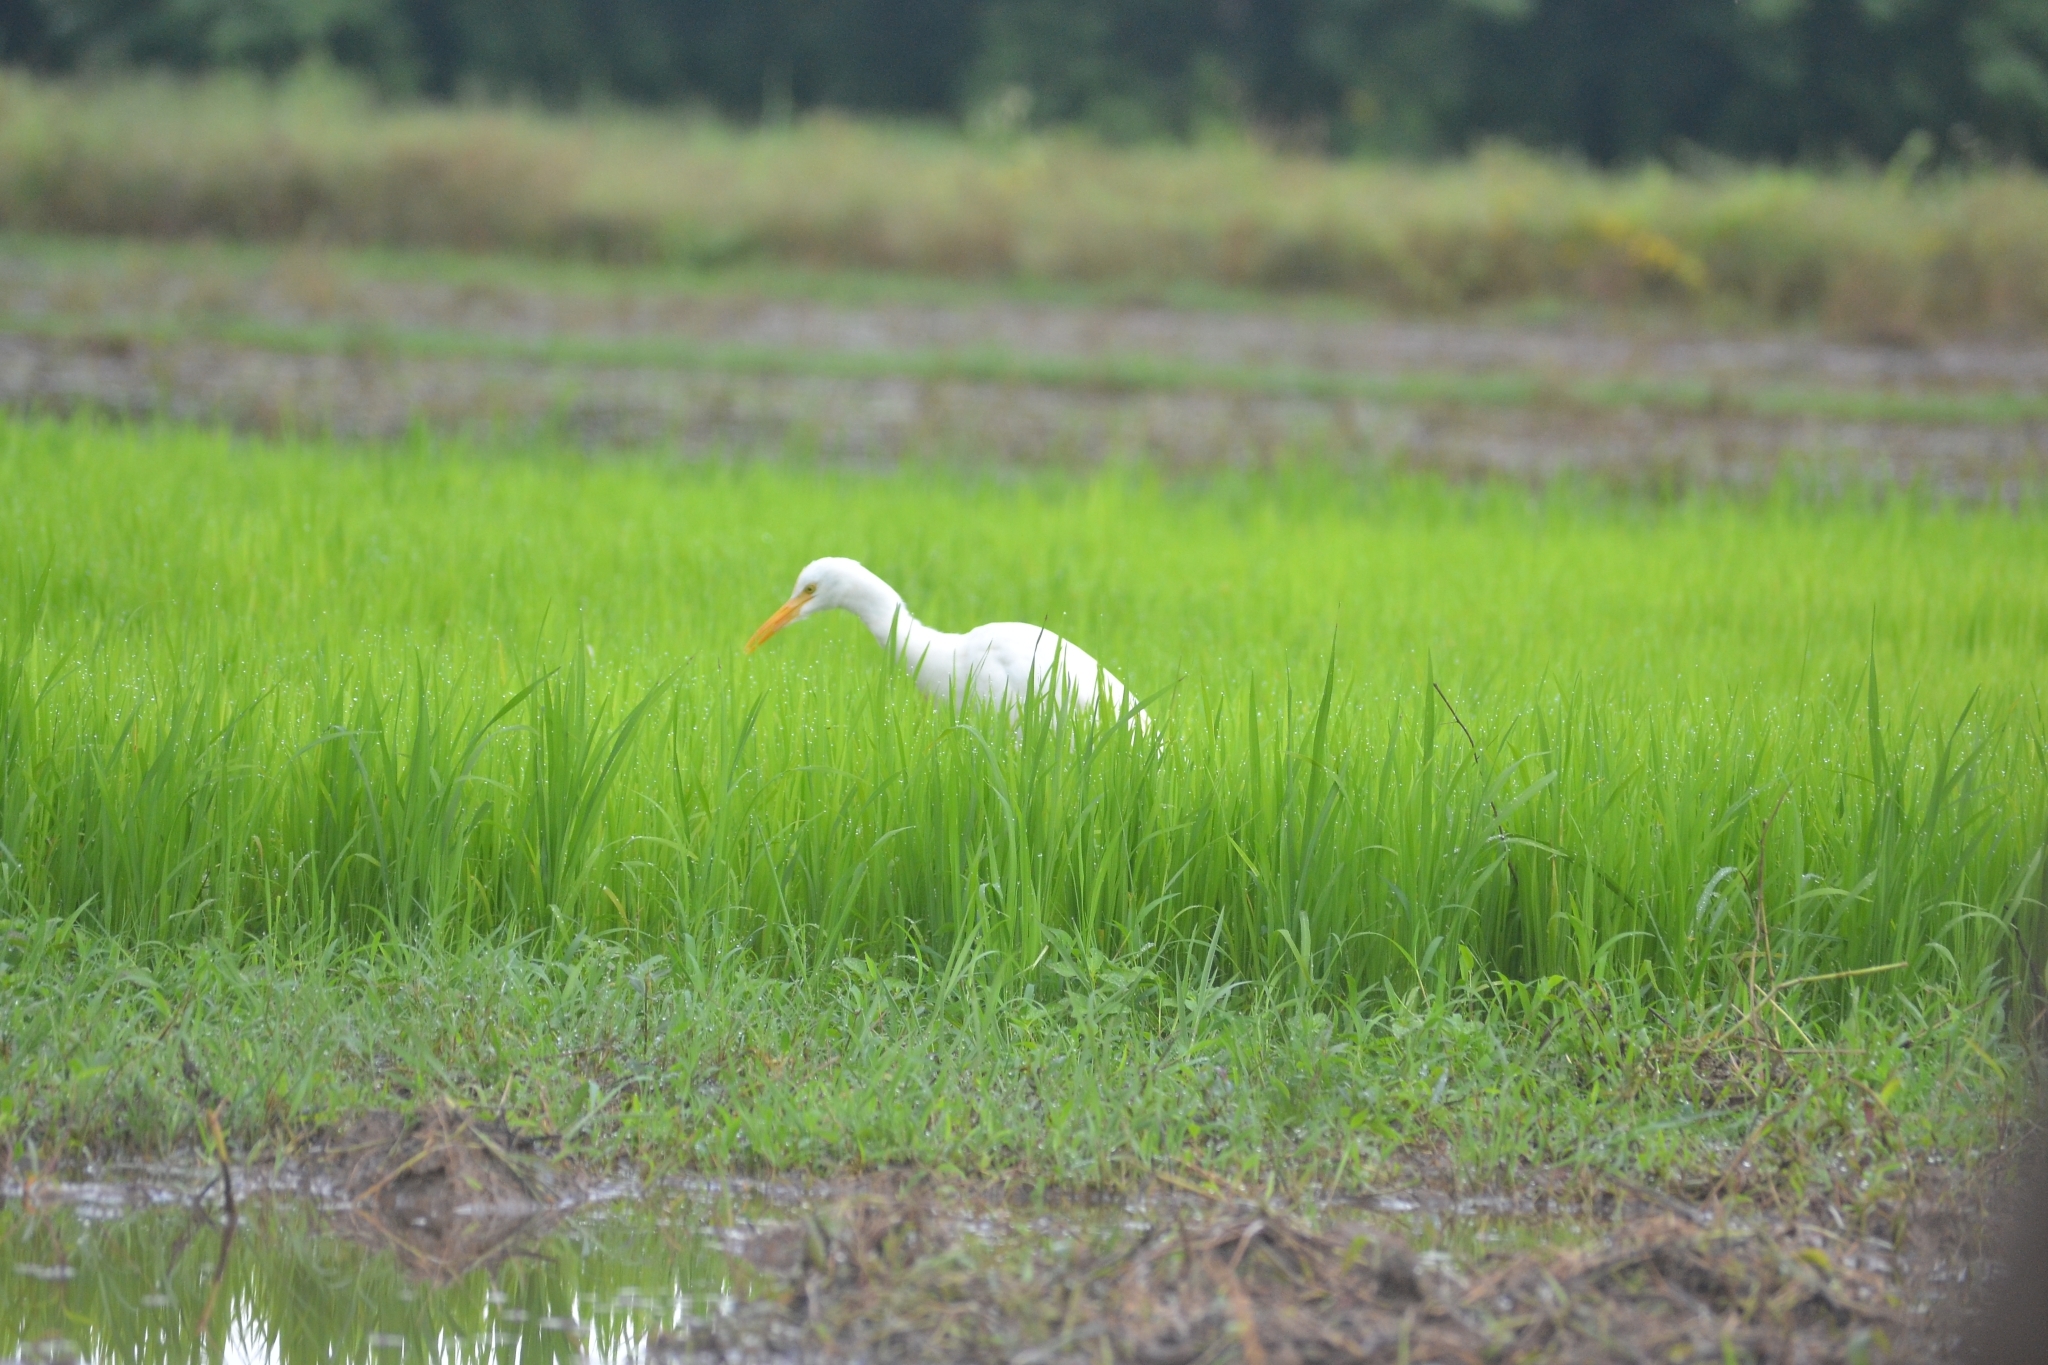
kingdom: Animalia
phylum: Chordata
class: Aves
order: Pelecaniformes
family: Ardeidae
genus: Bubulcus
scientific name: Bubulcus coromandus
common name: Eastern cattle egret
